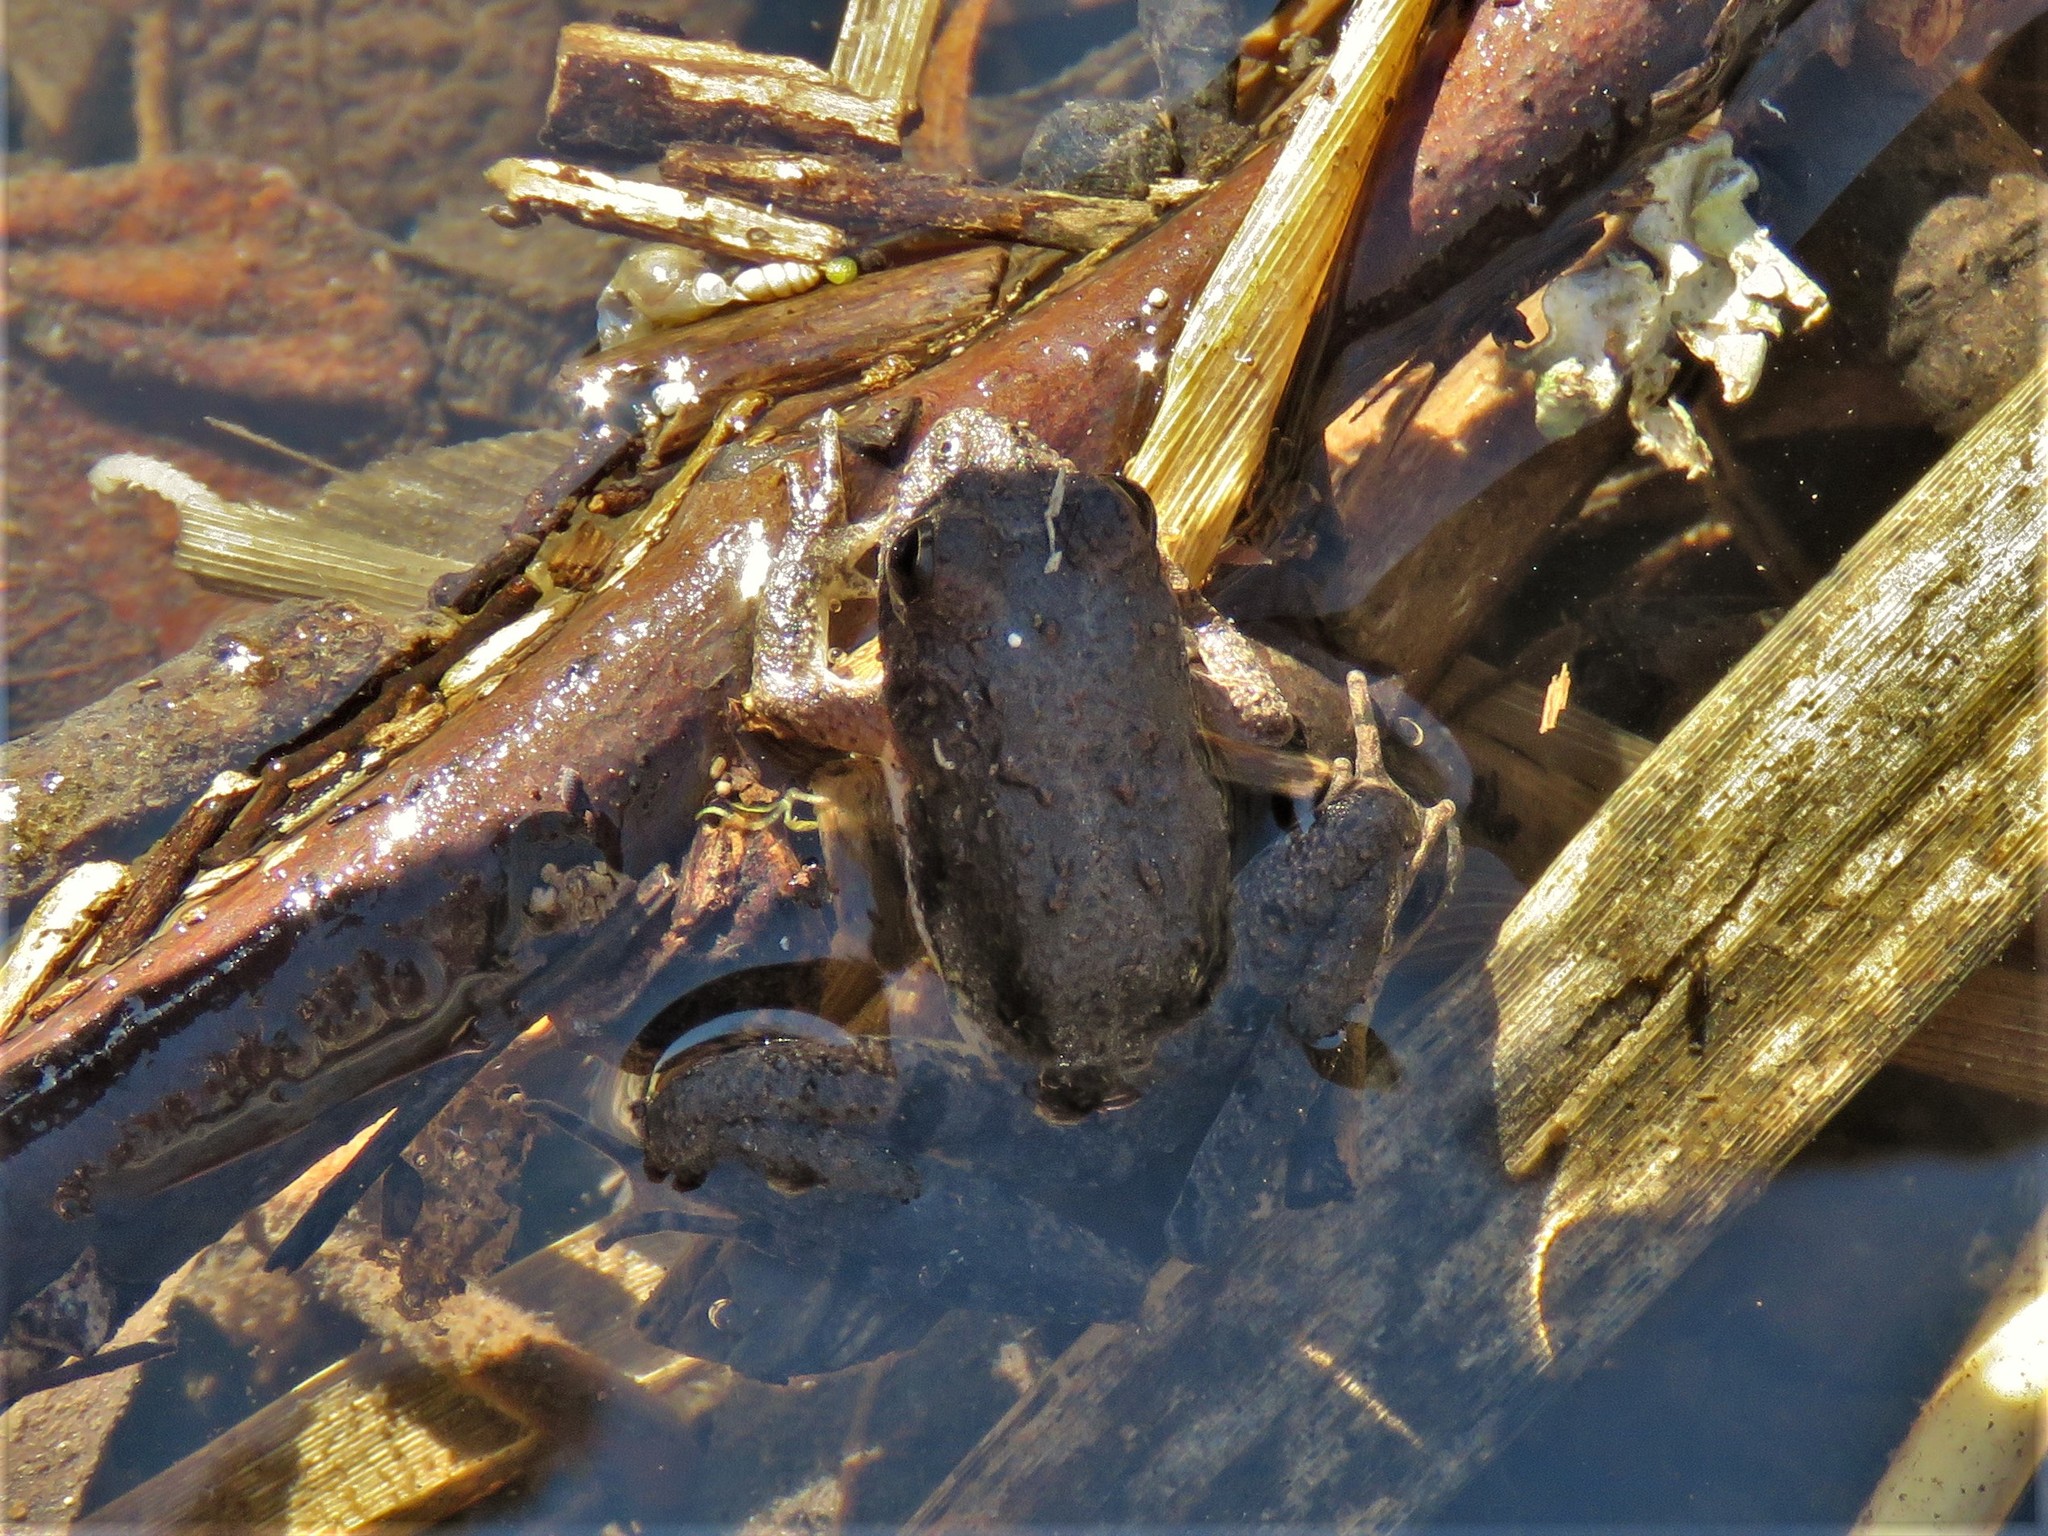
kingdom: Animalia
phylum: Chordata
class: Amphibia
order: Anura
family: Hylidae
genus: Acris
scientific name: Acris blanchardi
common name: Blanchard's cricket frog
